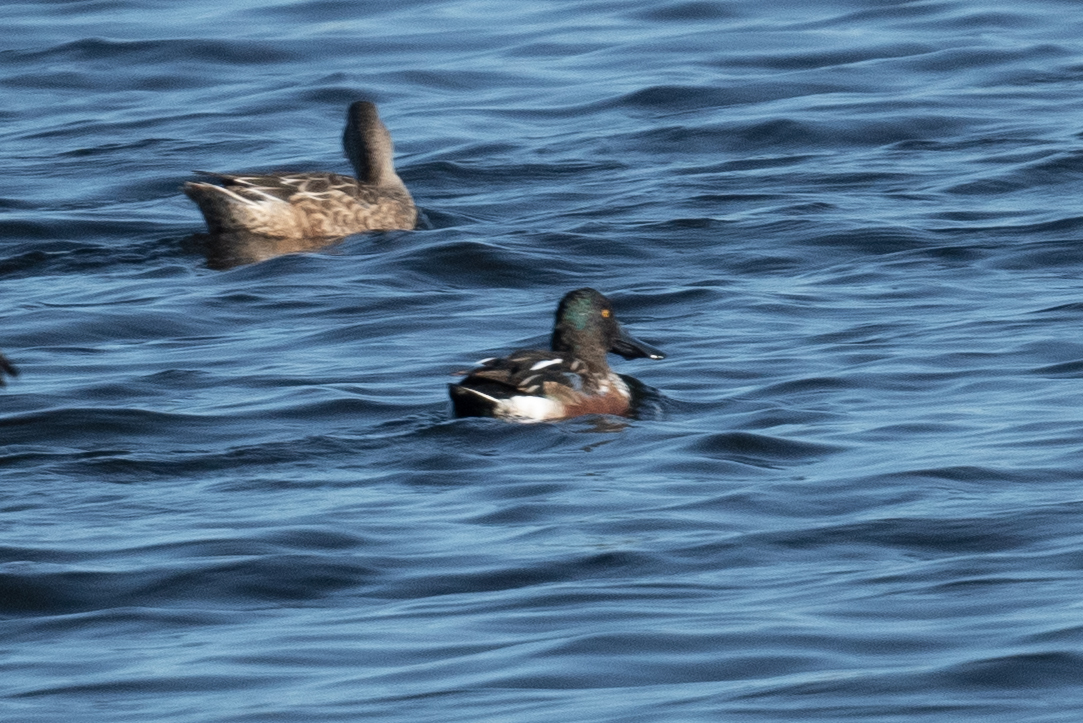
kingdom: Animalia
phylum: Chordata
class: Aves
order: Anseriformes
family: Anatidae
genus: Spatula
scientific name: Spatula clypeata
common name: Northern shoveler
